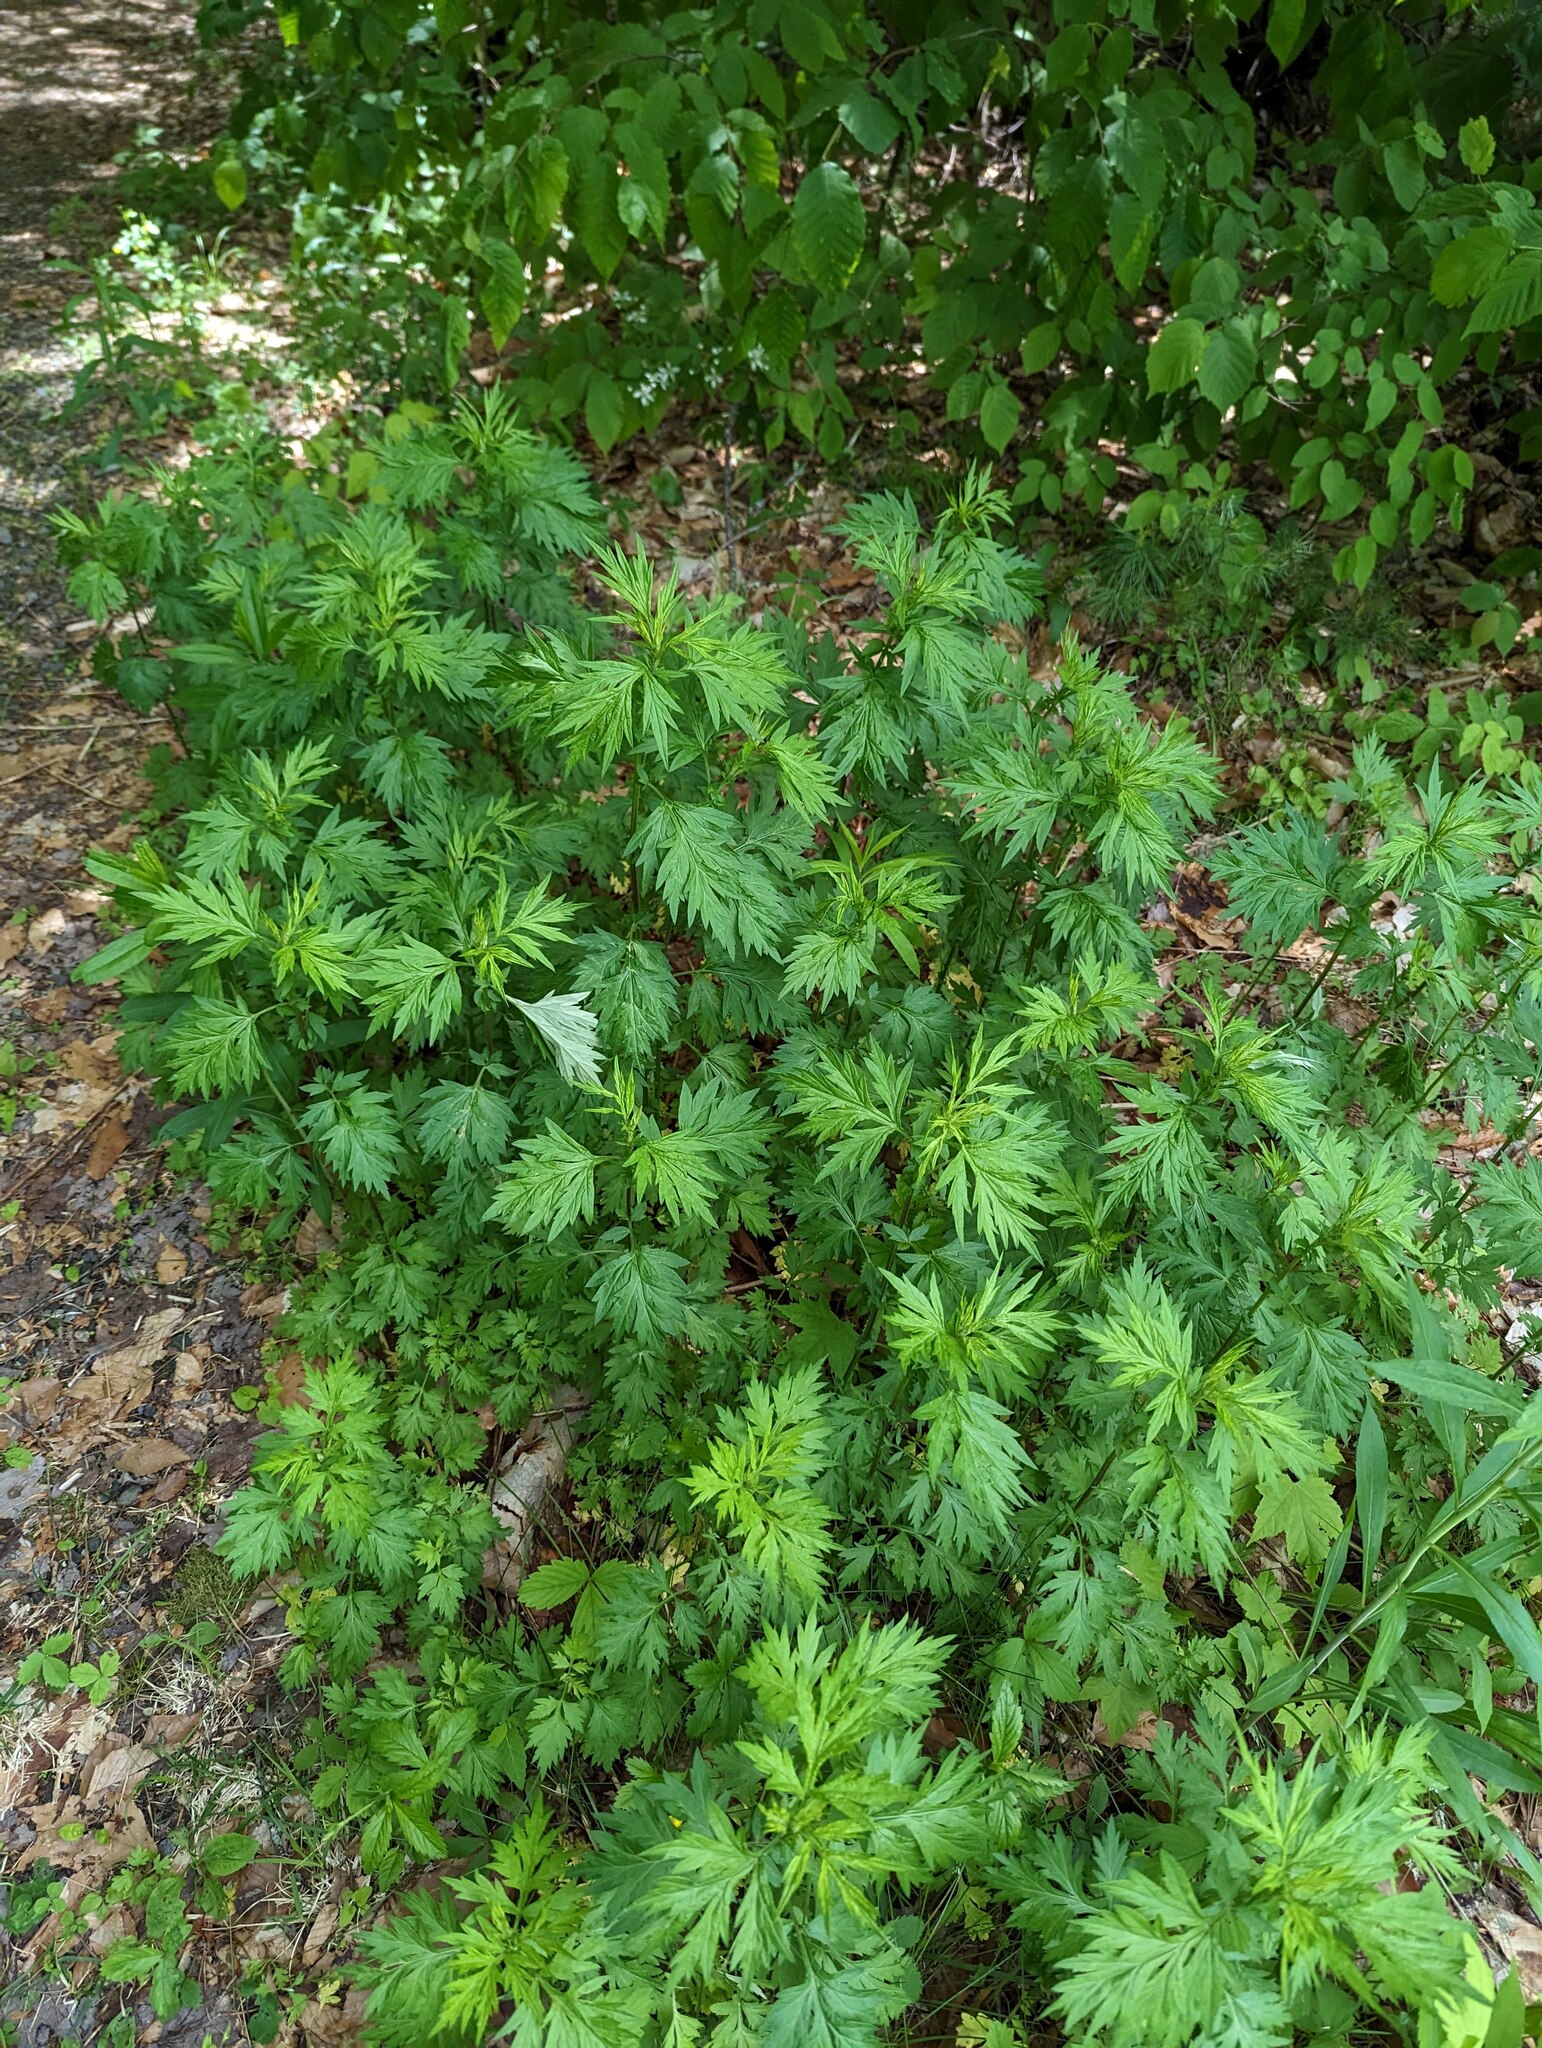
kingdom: Plantae
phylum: Tracheophyta
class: Magnoliopsida
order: Asterales
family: Asteraceae
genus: Artemisia
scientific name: Artemisia vulgaris
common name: Mugwort
